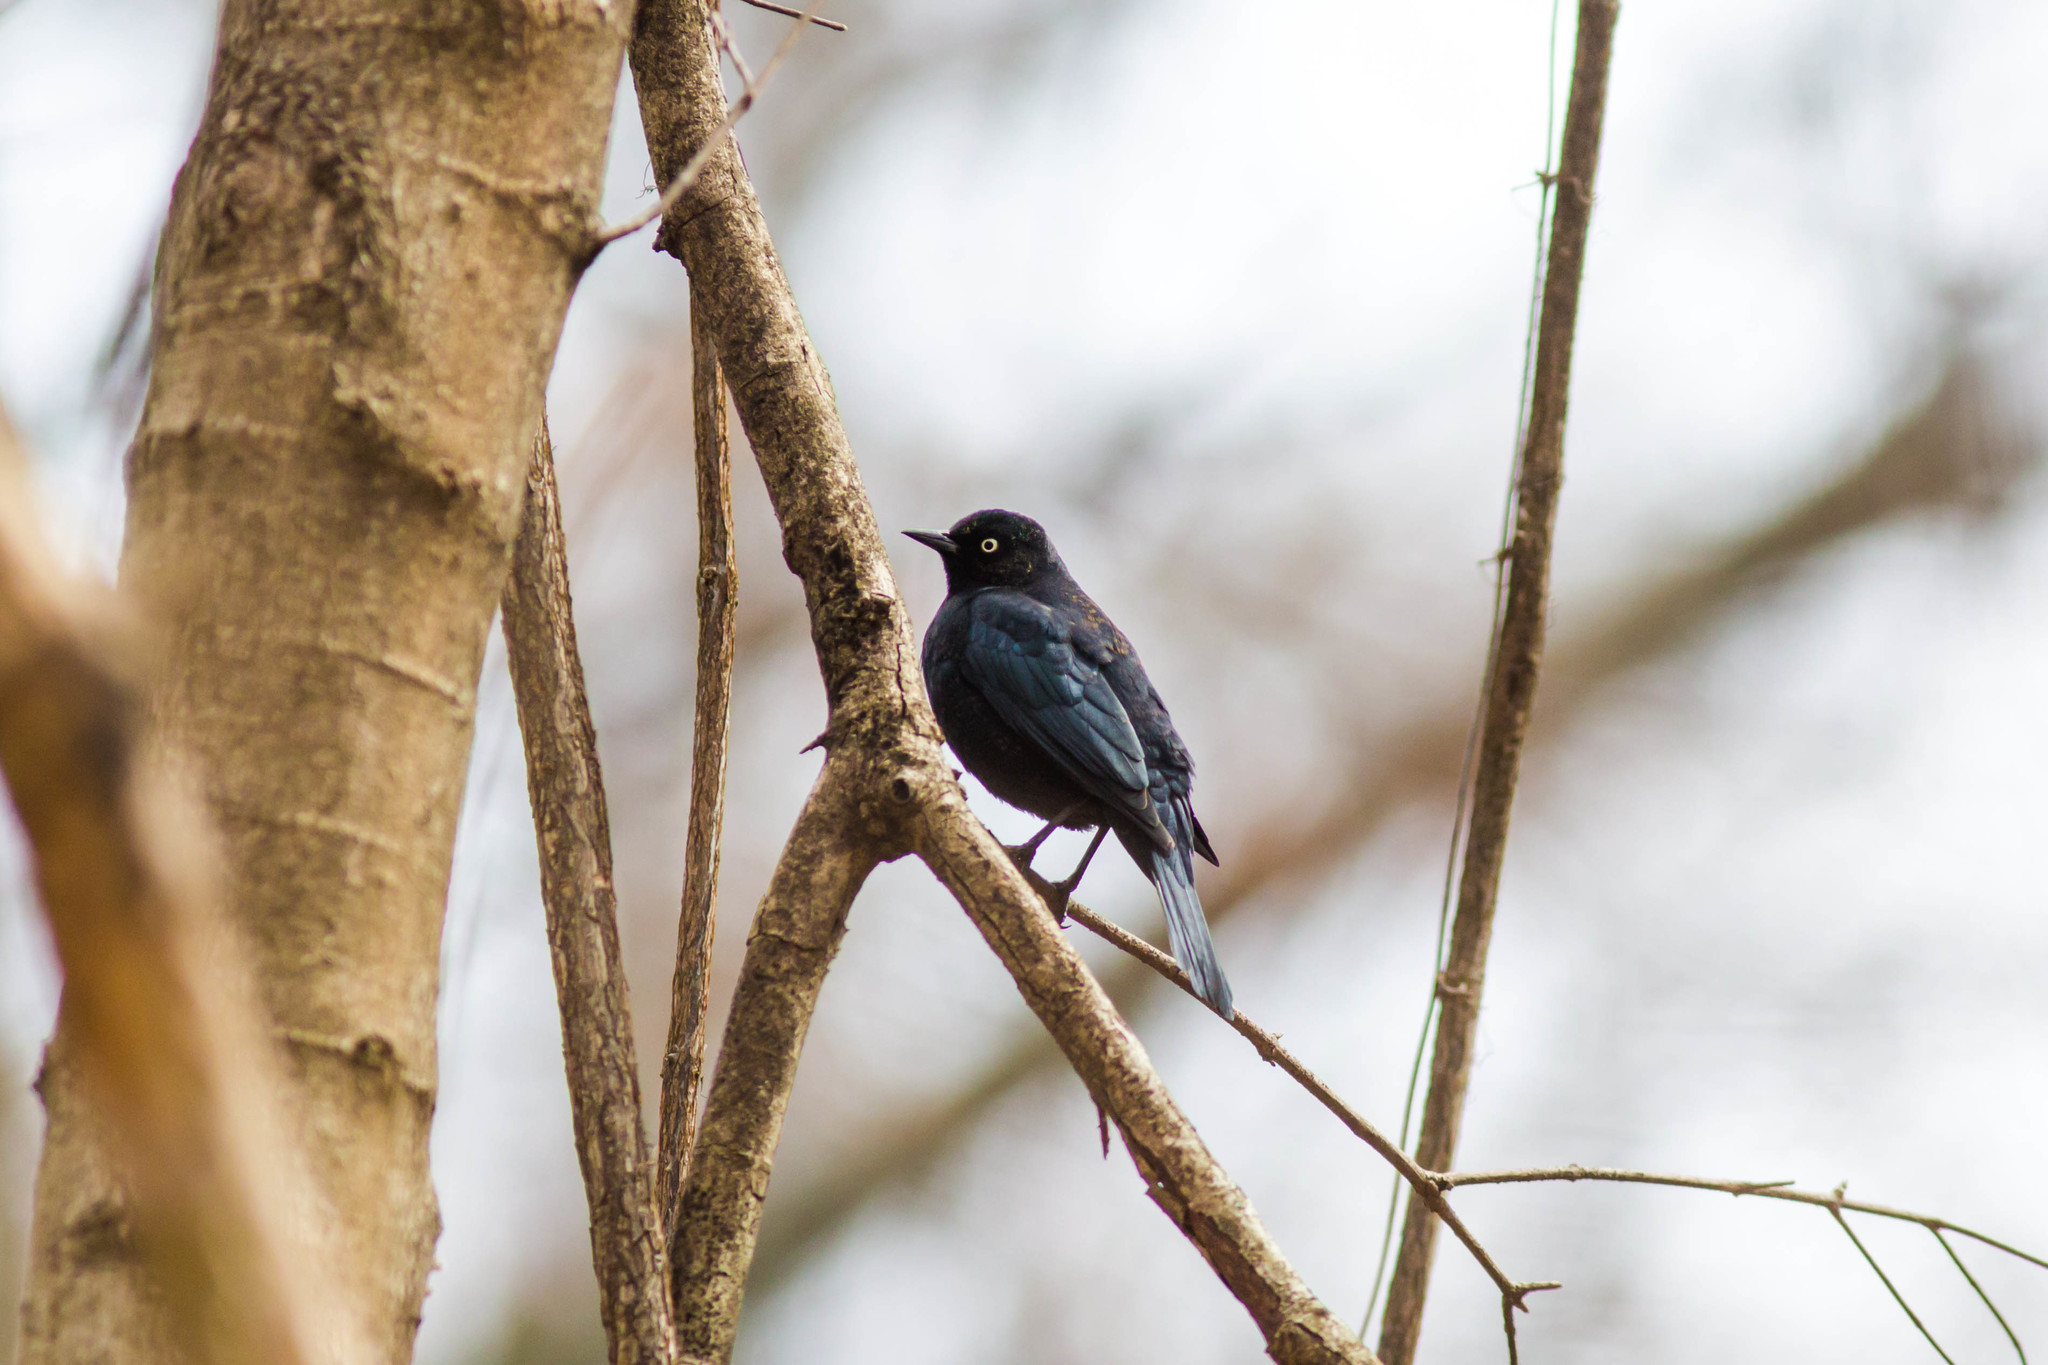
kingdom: Animalia
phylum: Chordata
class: Aves
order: Passeriformes
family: Icteridae
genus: Euphagus
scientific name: Euphagus carolinus
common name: Rusty blackbird
